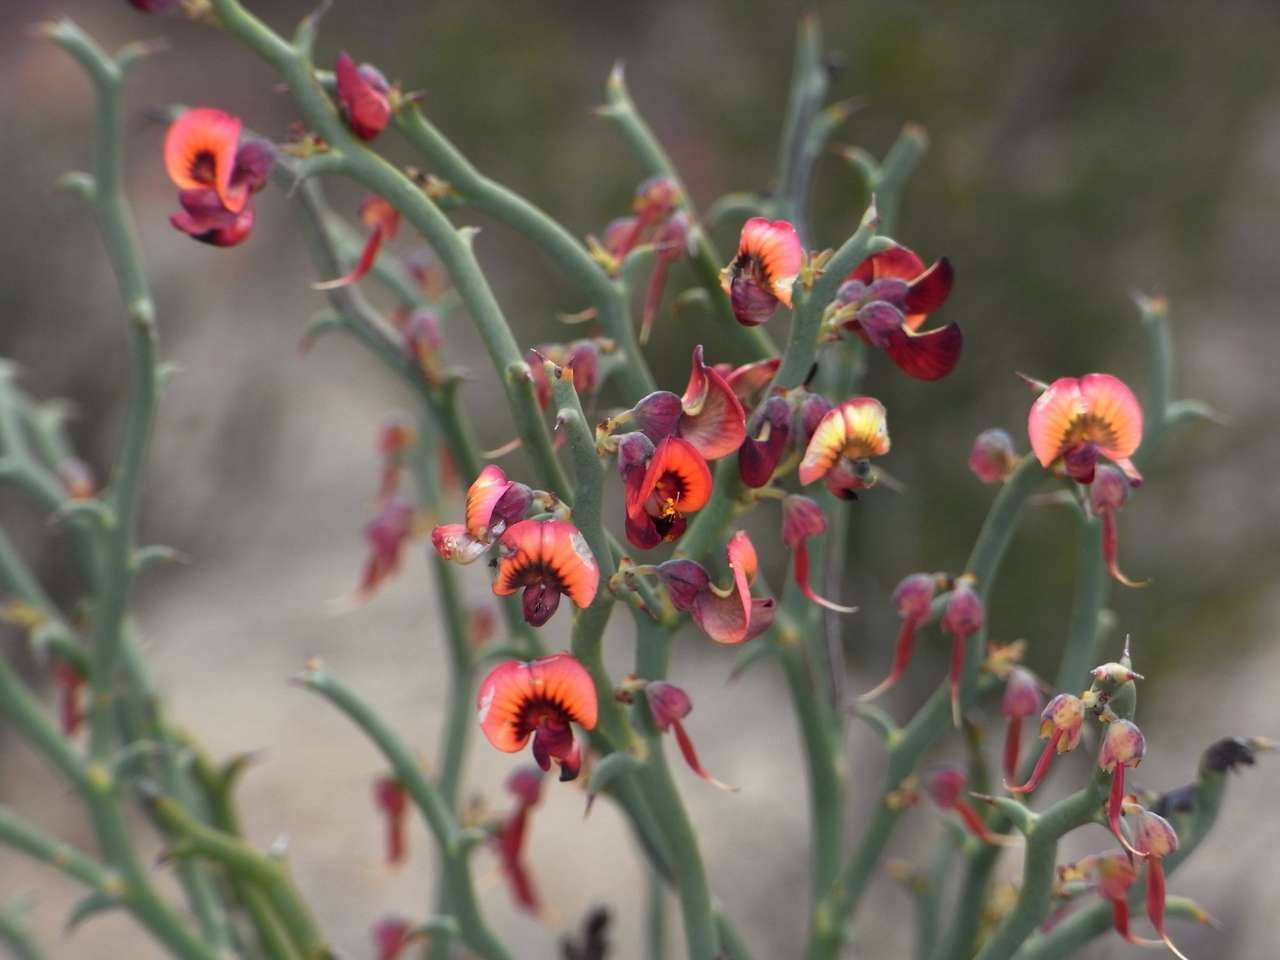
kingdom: Plantae
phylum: Tracheophyta
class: Magnoliopsida
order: Fabales
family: Fabaceae
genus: Daviesia
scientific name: Daviesia brevifolia
